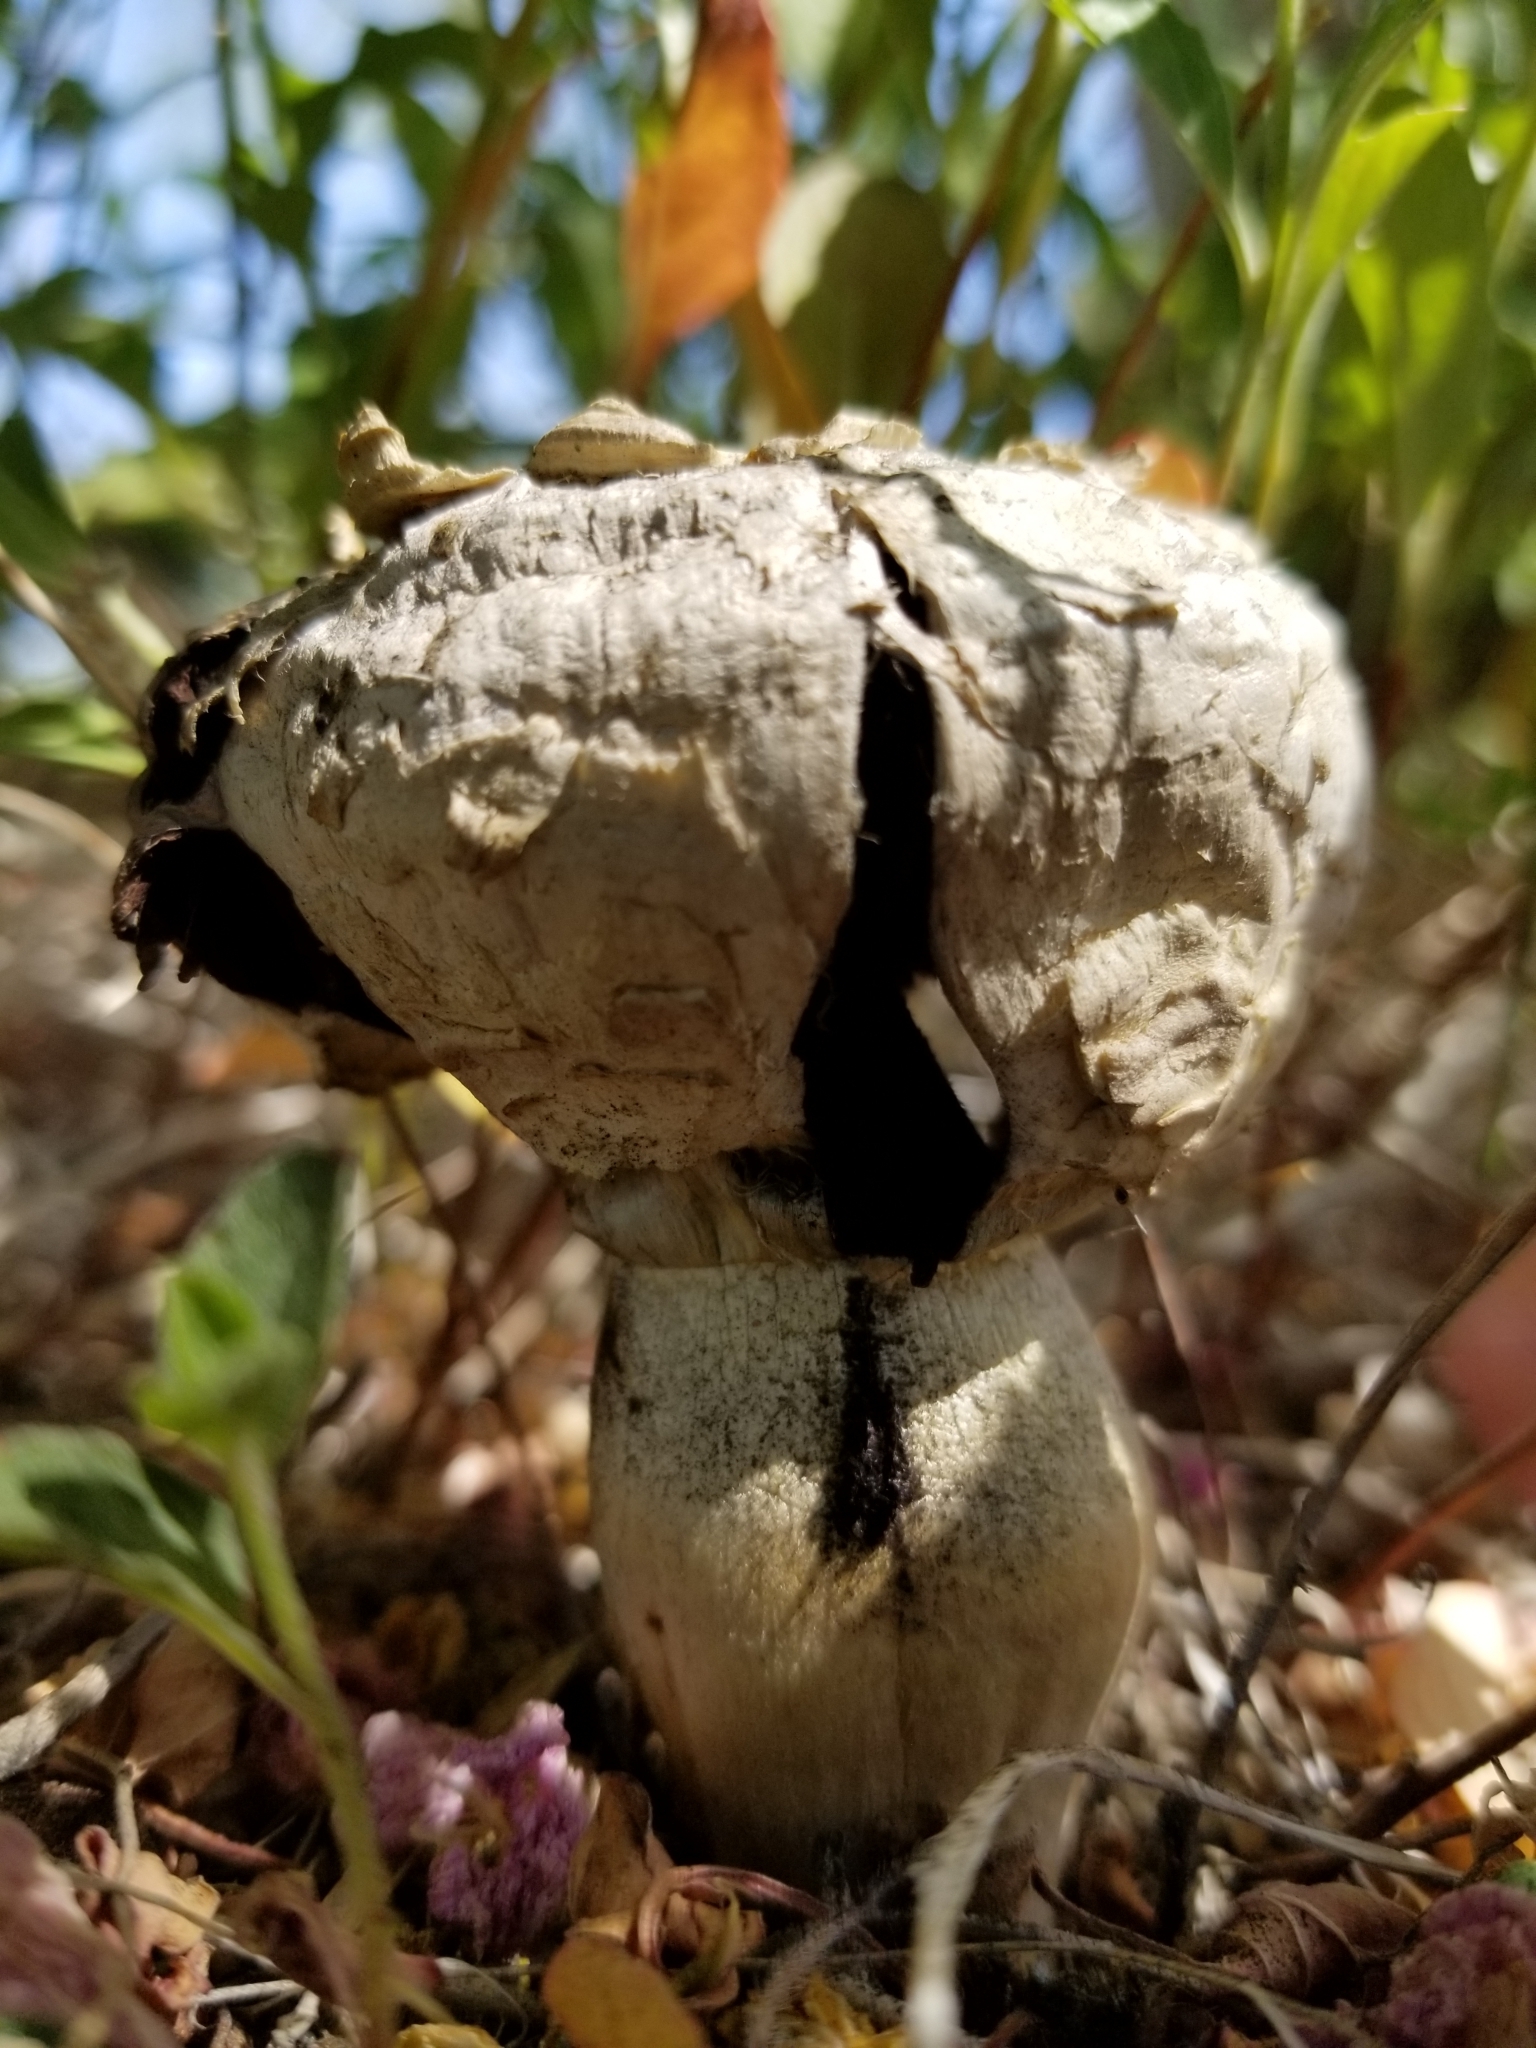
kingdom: Fungi
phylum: Basidiomycota
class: Agaricomycetes
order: Agaricales
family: Agaricaceae
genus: Agaricus
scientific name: Agaricus deserticola
